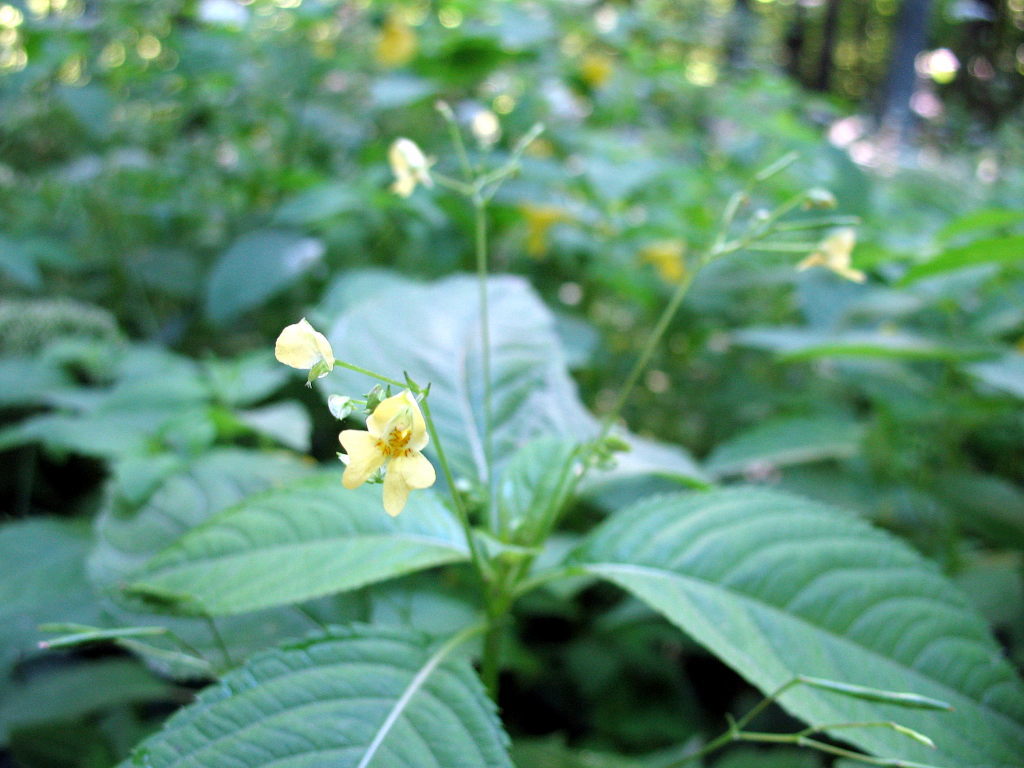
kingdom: Plantae
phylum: Tracheophyta
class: Magnoliopsida
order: Ericales
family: Balsaminaceae
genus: Impatiens
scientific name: Impatiens parviflora
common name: Small balsam
